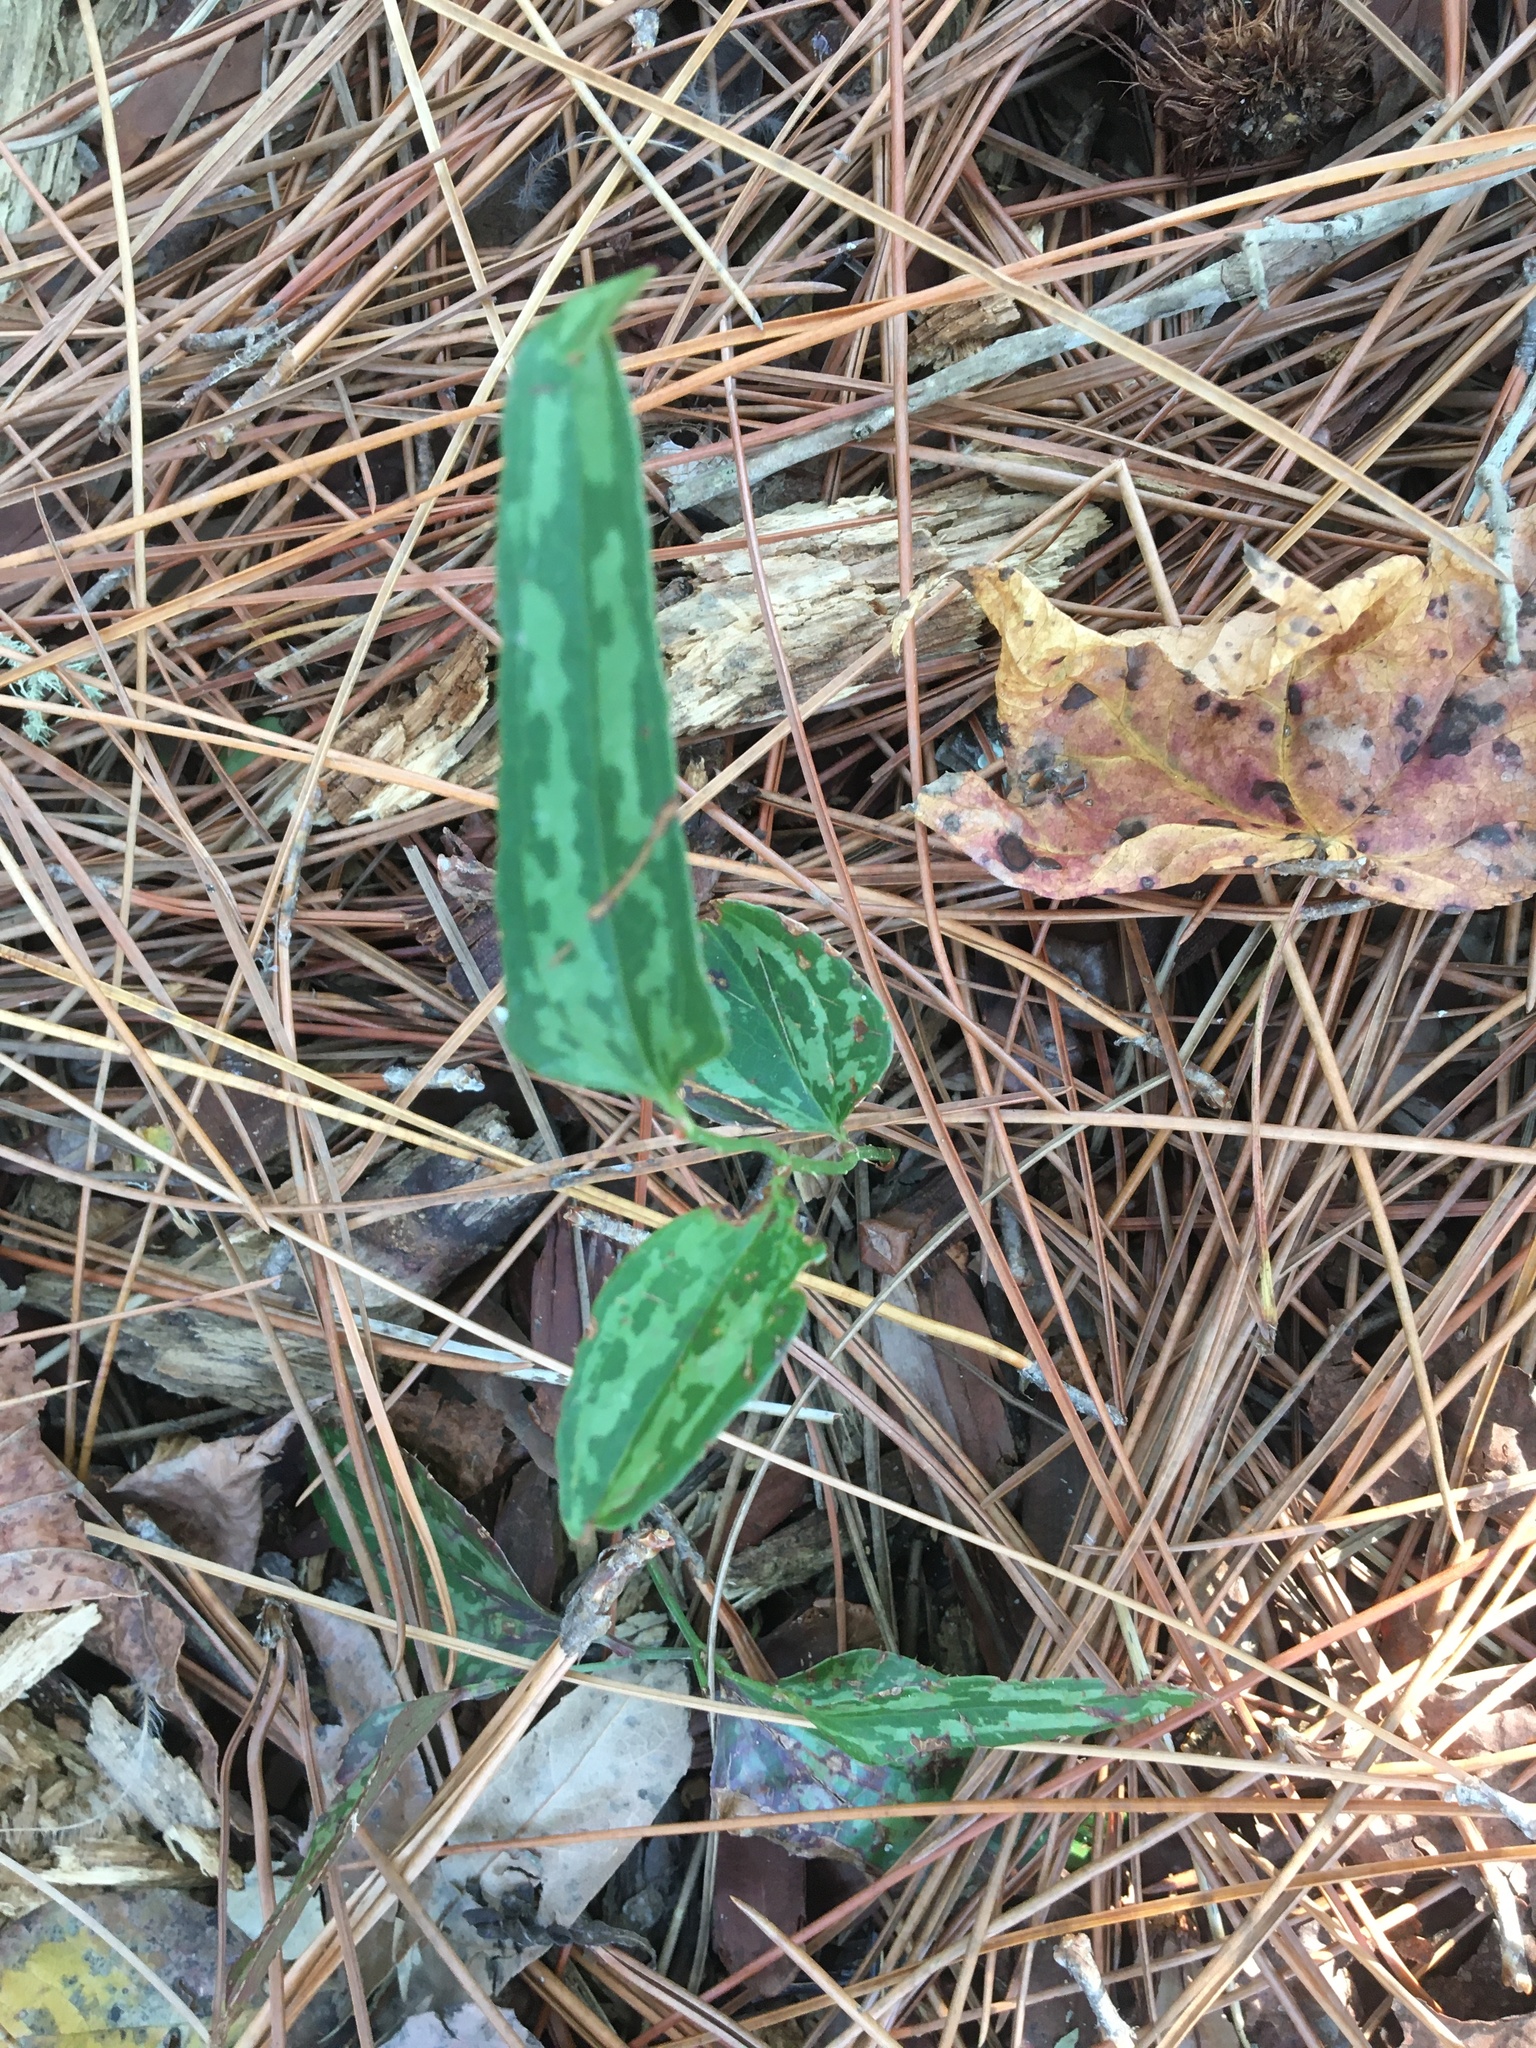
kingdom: Plantae
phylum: Tracheophyta
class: Liliopsida
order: Liliales
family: Smilacaceae
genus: Smilax
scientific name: Smilax bona-nox
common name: Catbrier
